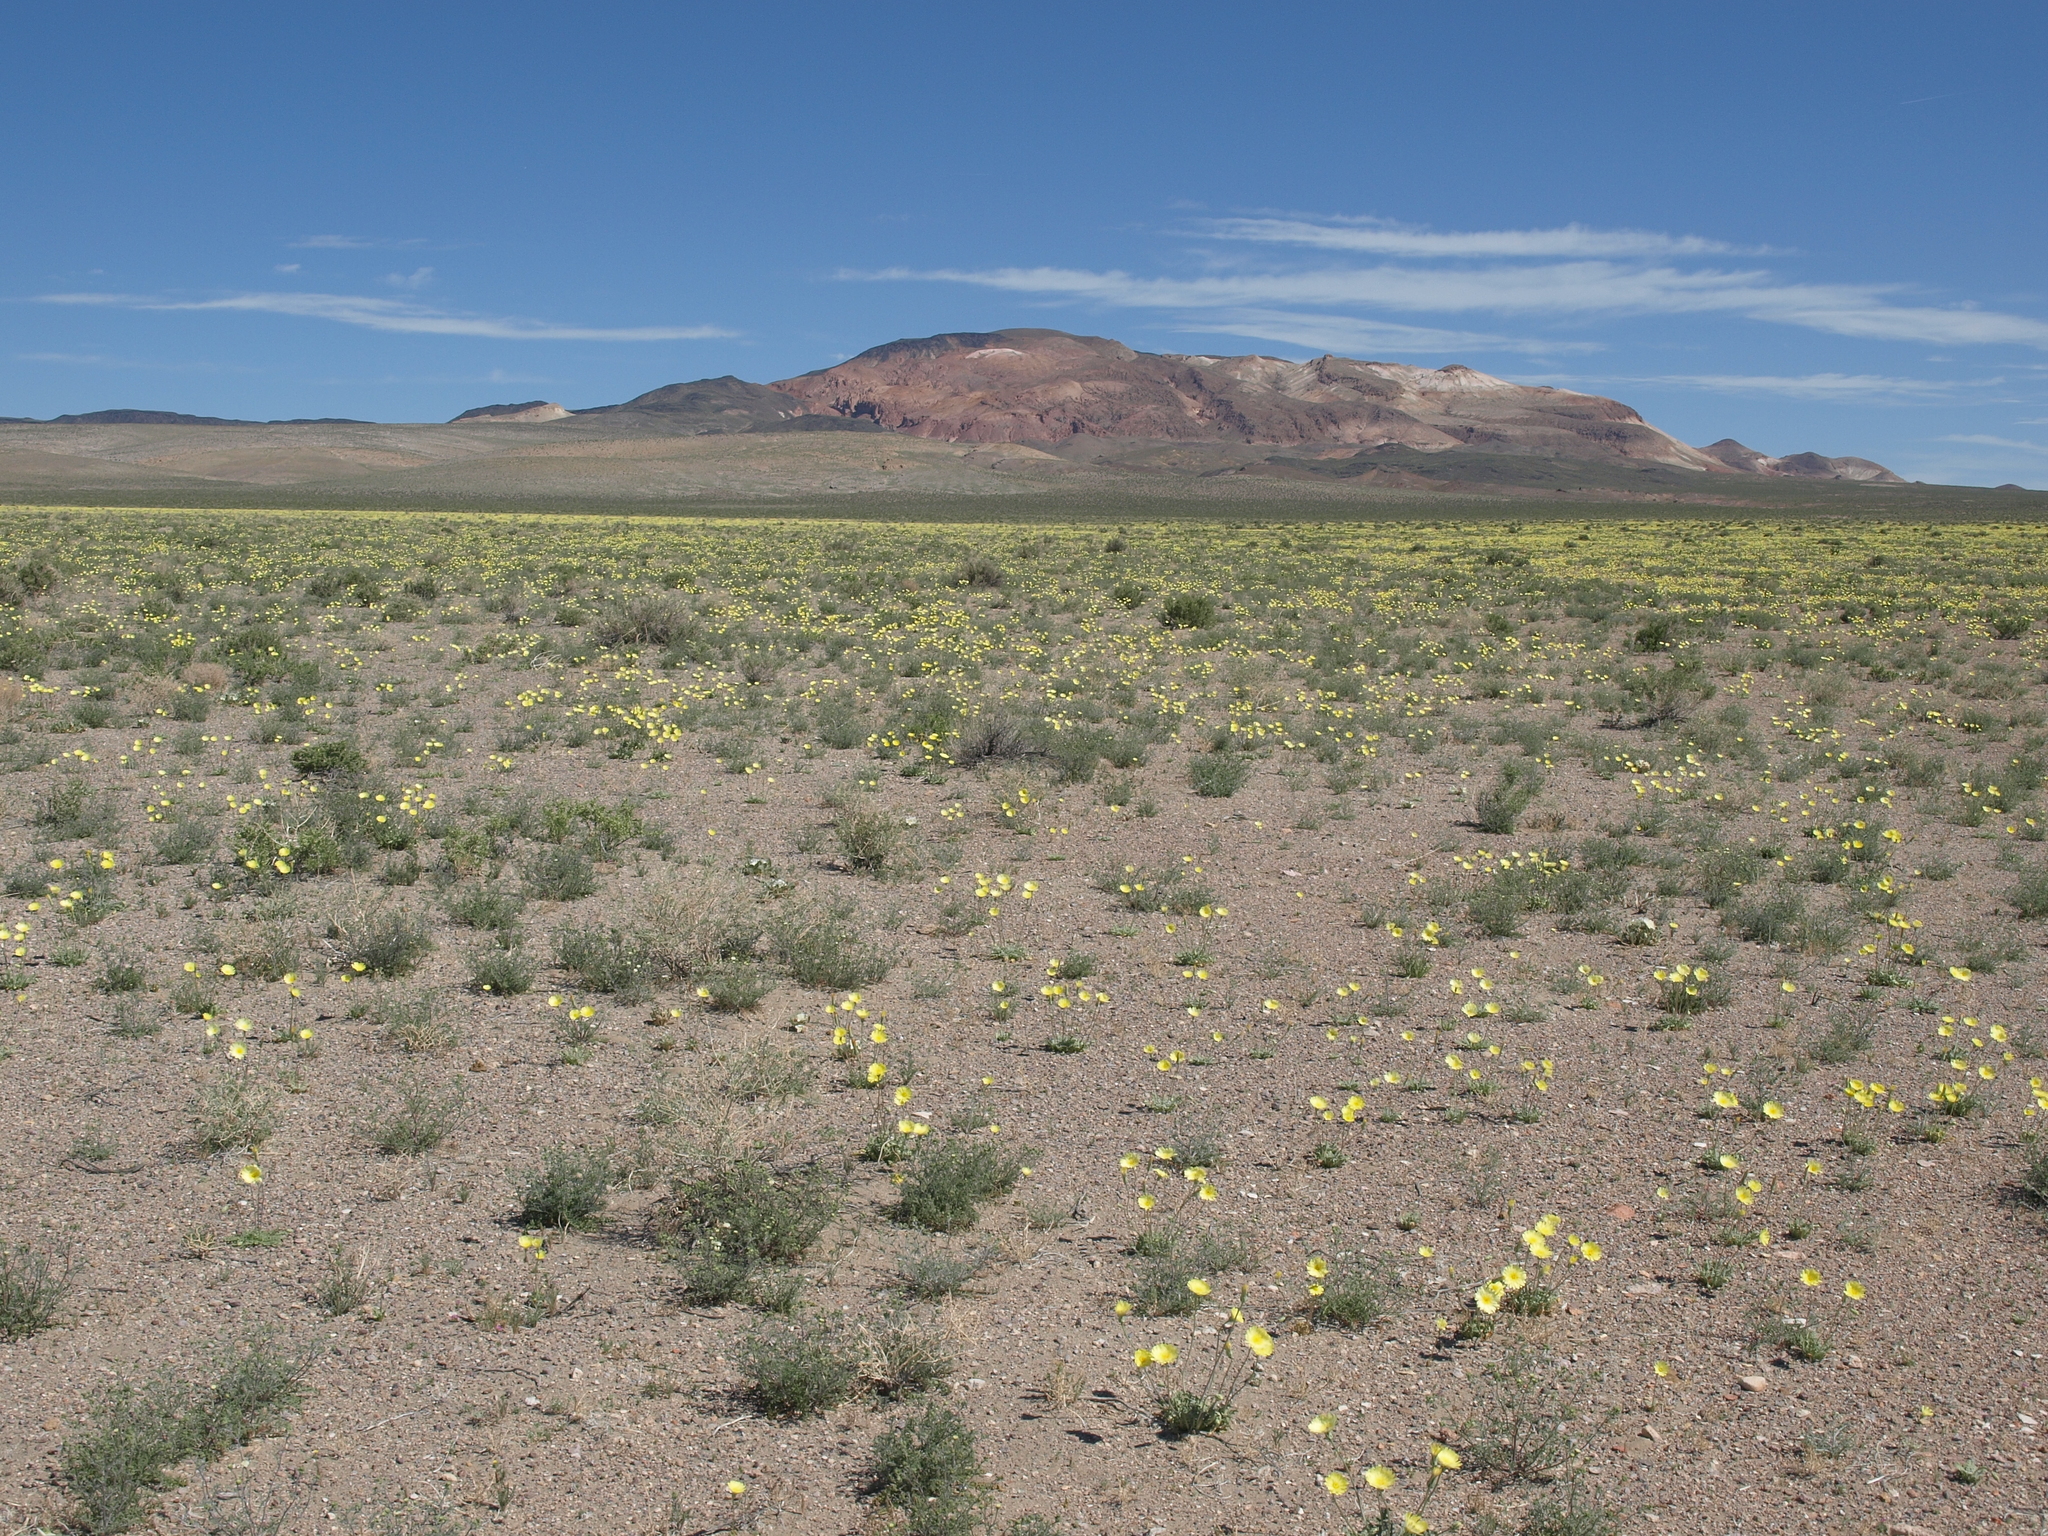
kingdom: Plantae
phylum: Tracheophyta
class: Magnoliopsida
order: Asterales
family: Asteraceae
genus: Anisocoma
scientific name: Anisocoma acaulis
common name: Scalebud
